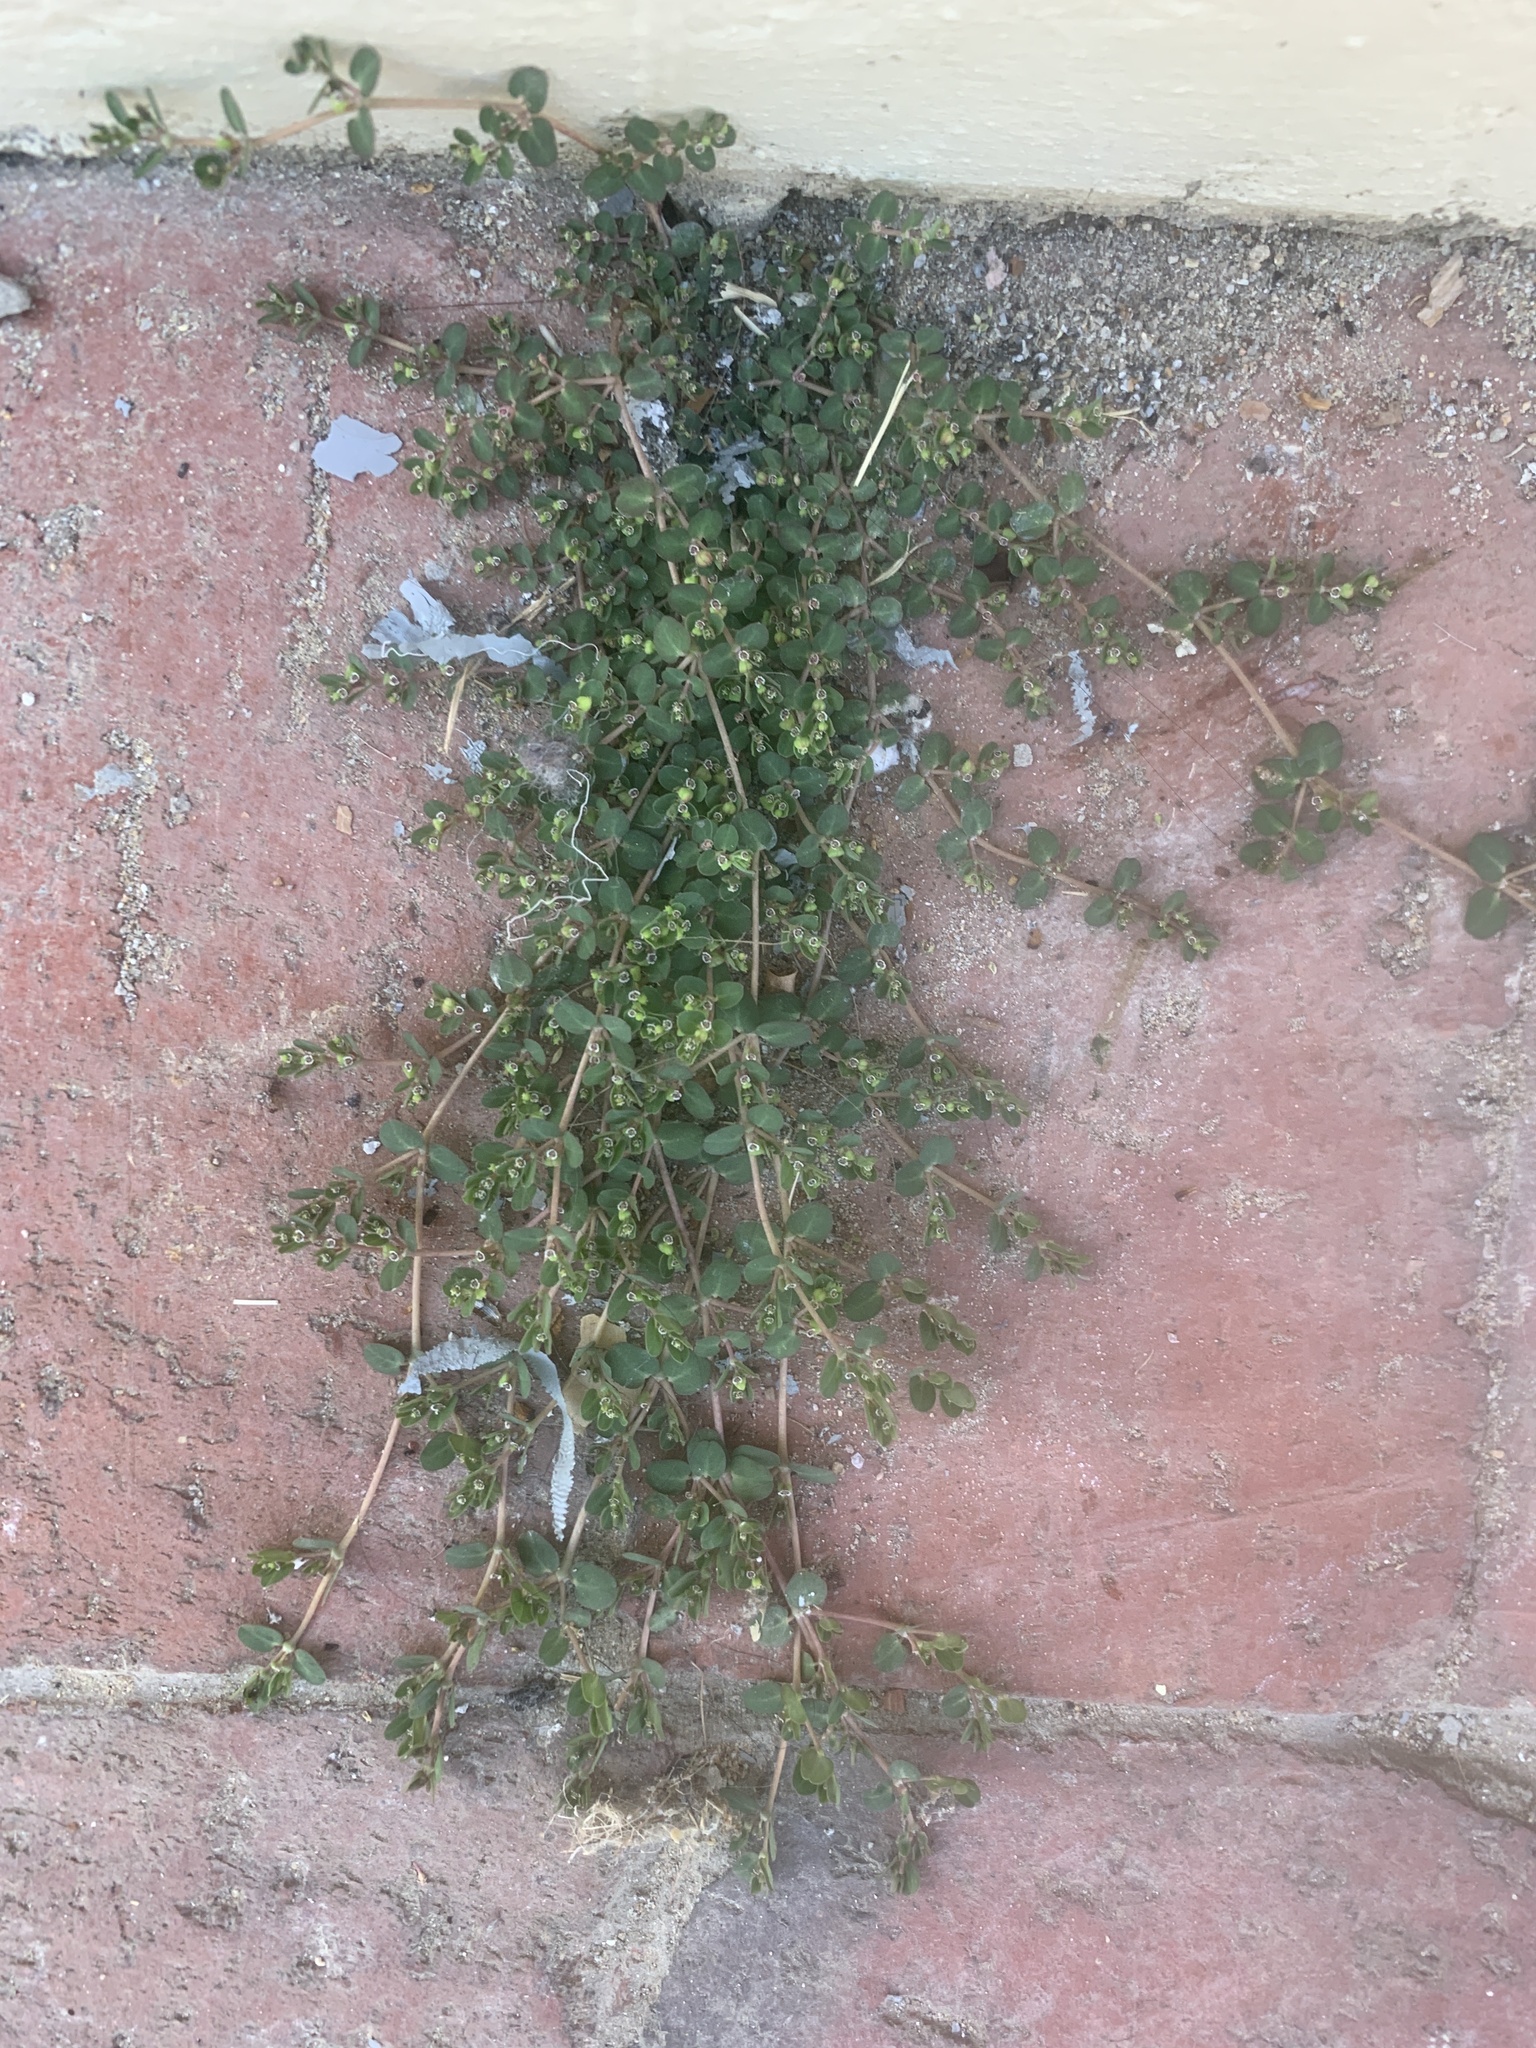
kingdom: Plantae
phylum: Tracheophyta
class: Magnoliopsida
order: Malpighiales
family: Euphorbiaceae
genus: Euphorbia
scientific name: Euphorbia serpens
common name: Matted sandmat
